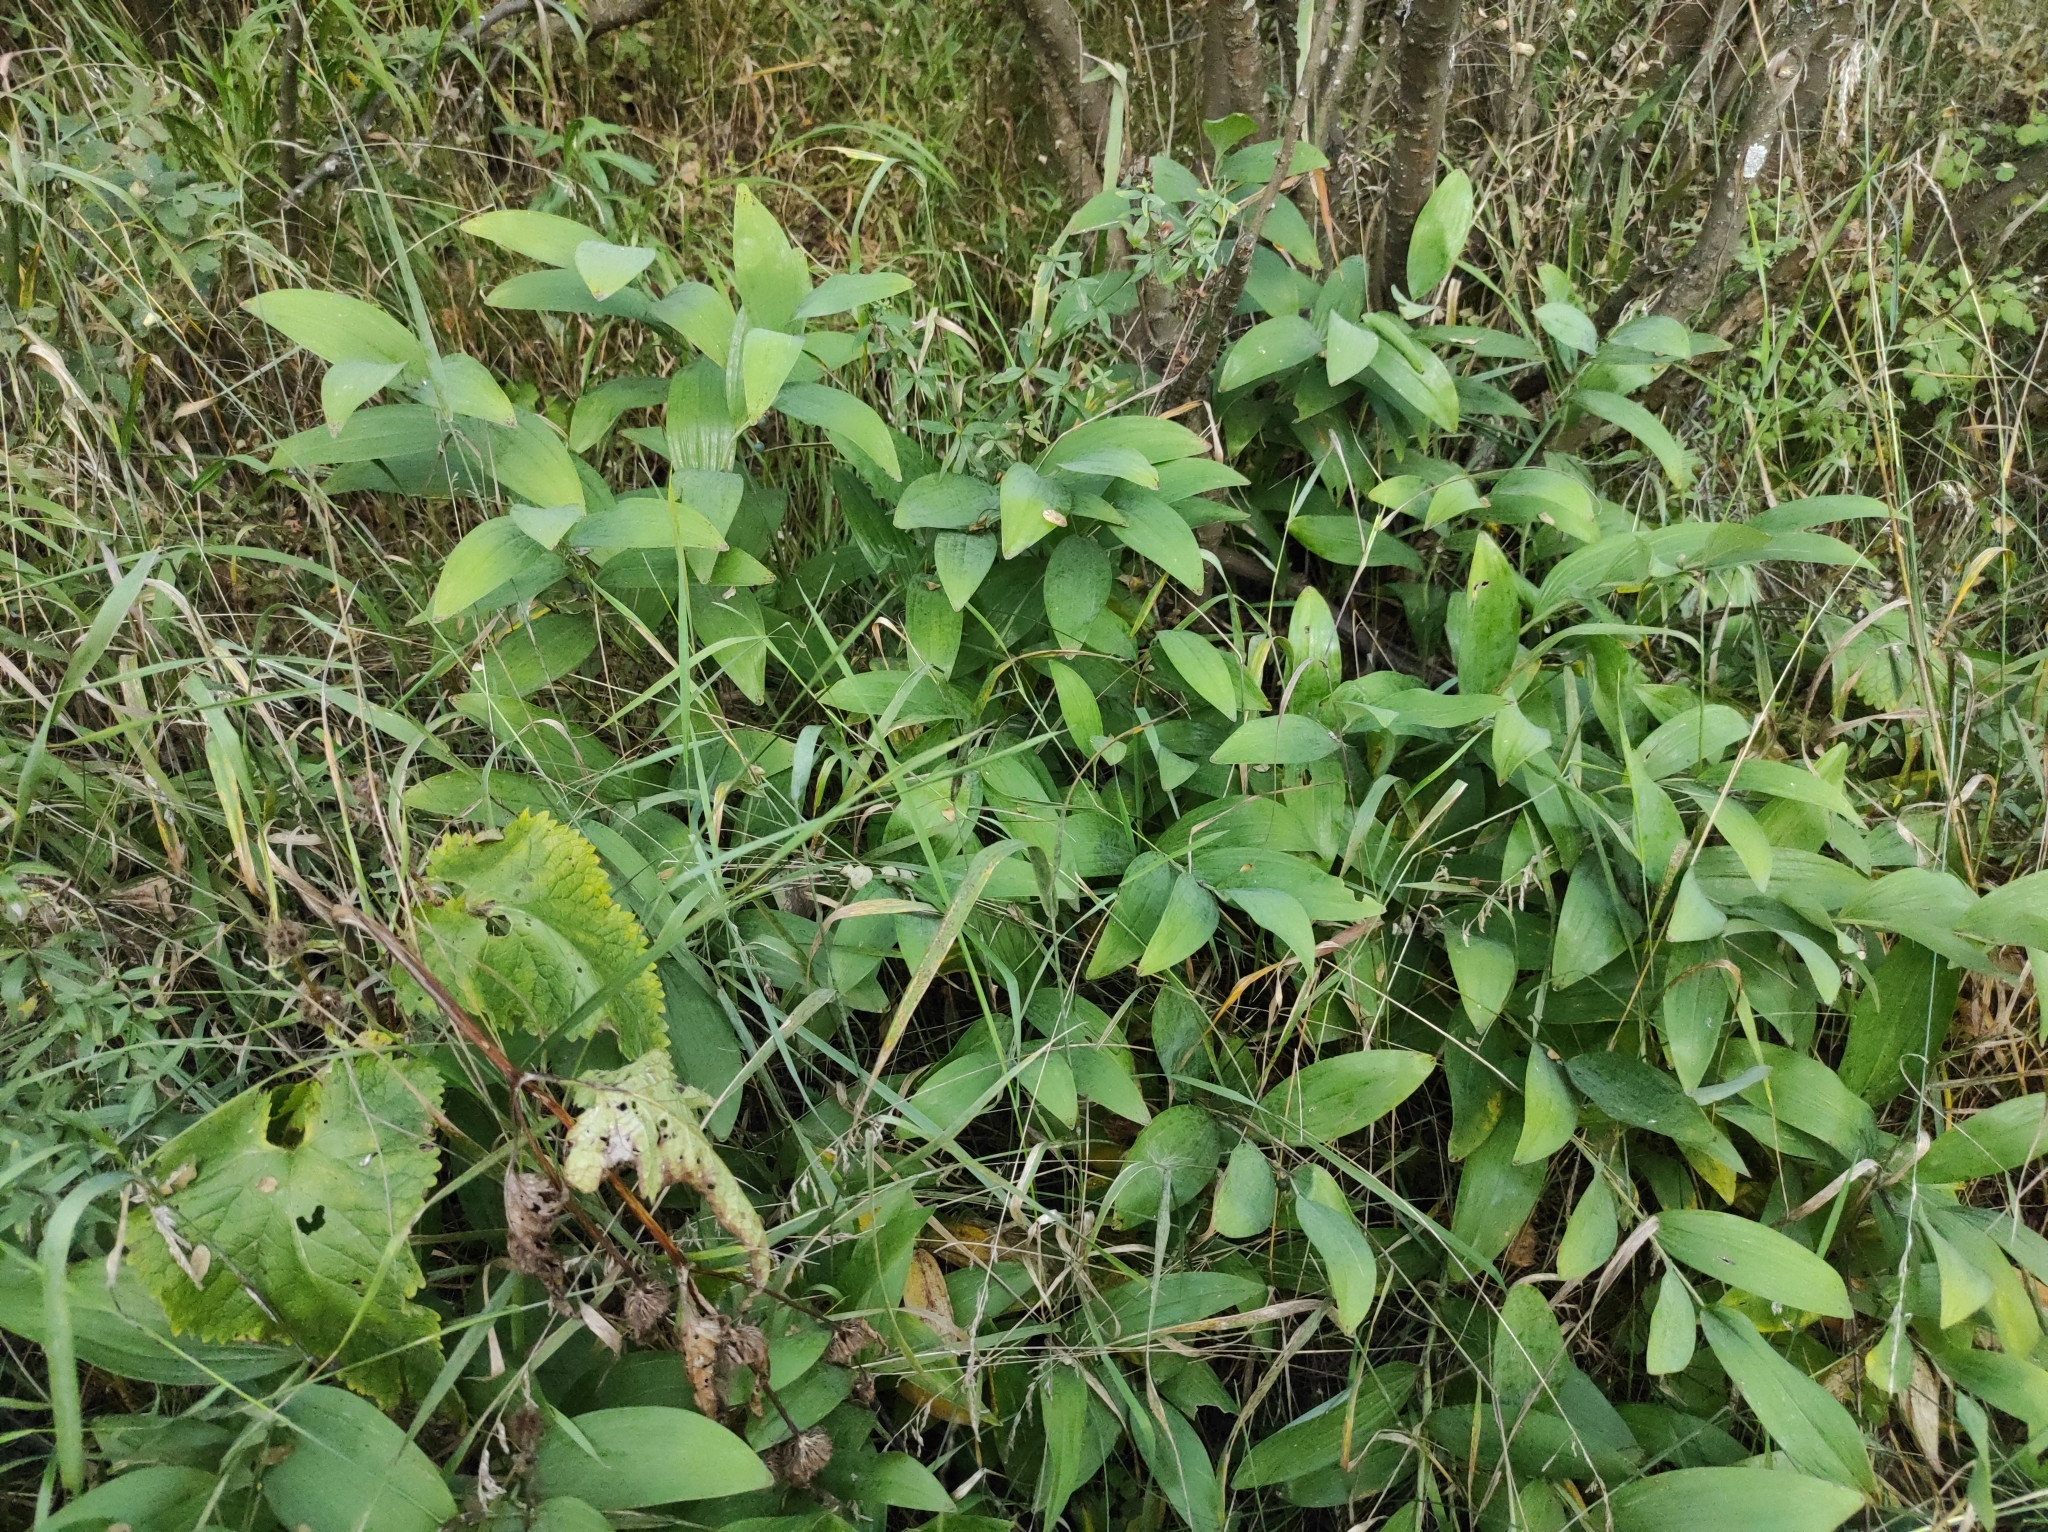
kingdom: Plantae
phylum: Tracheophyta
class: Liliopsida
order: Asparagales
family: Asparagaceae
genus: Polygonatum
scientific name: Polygonatum odoratum
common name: Angular solomon's-seal
